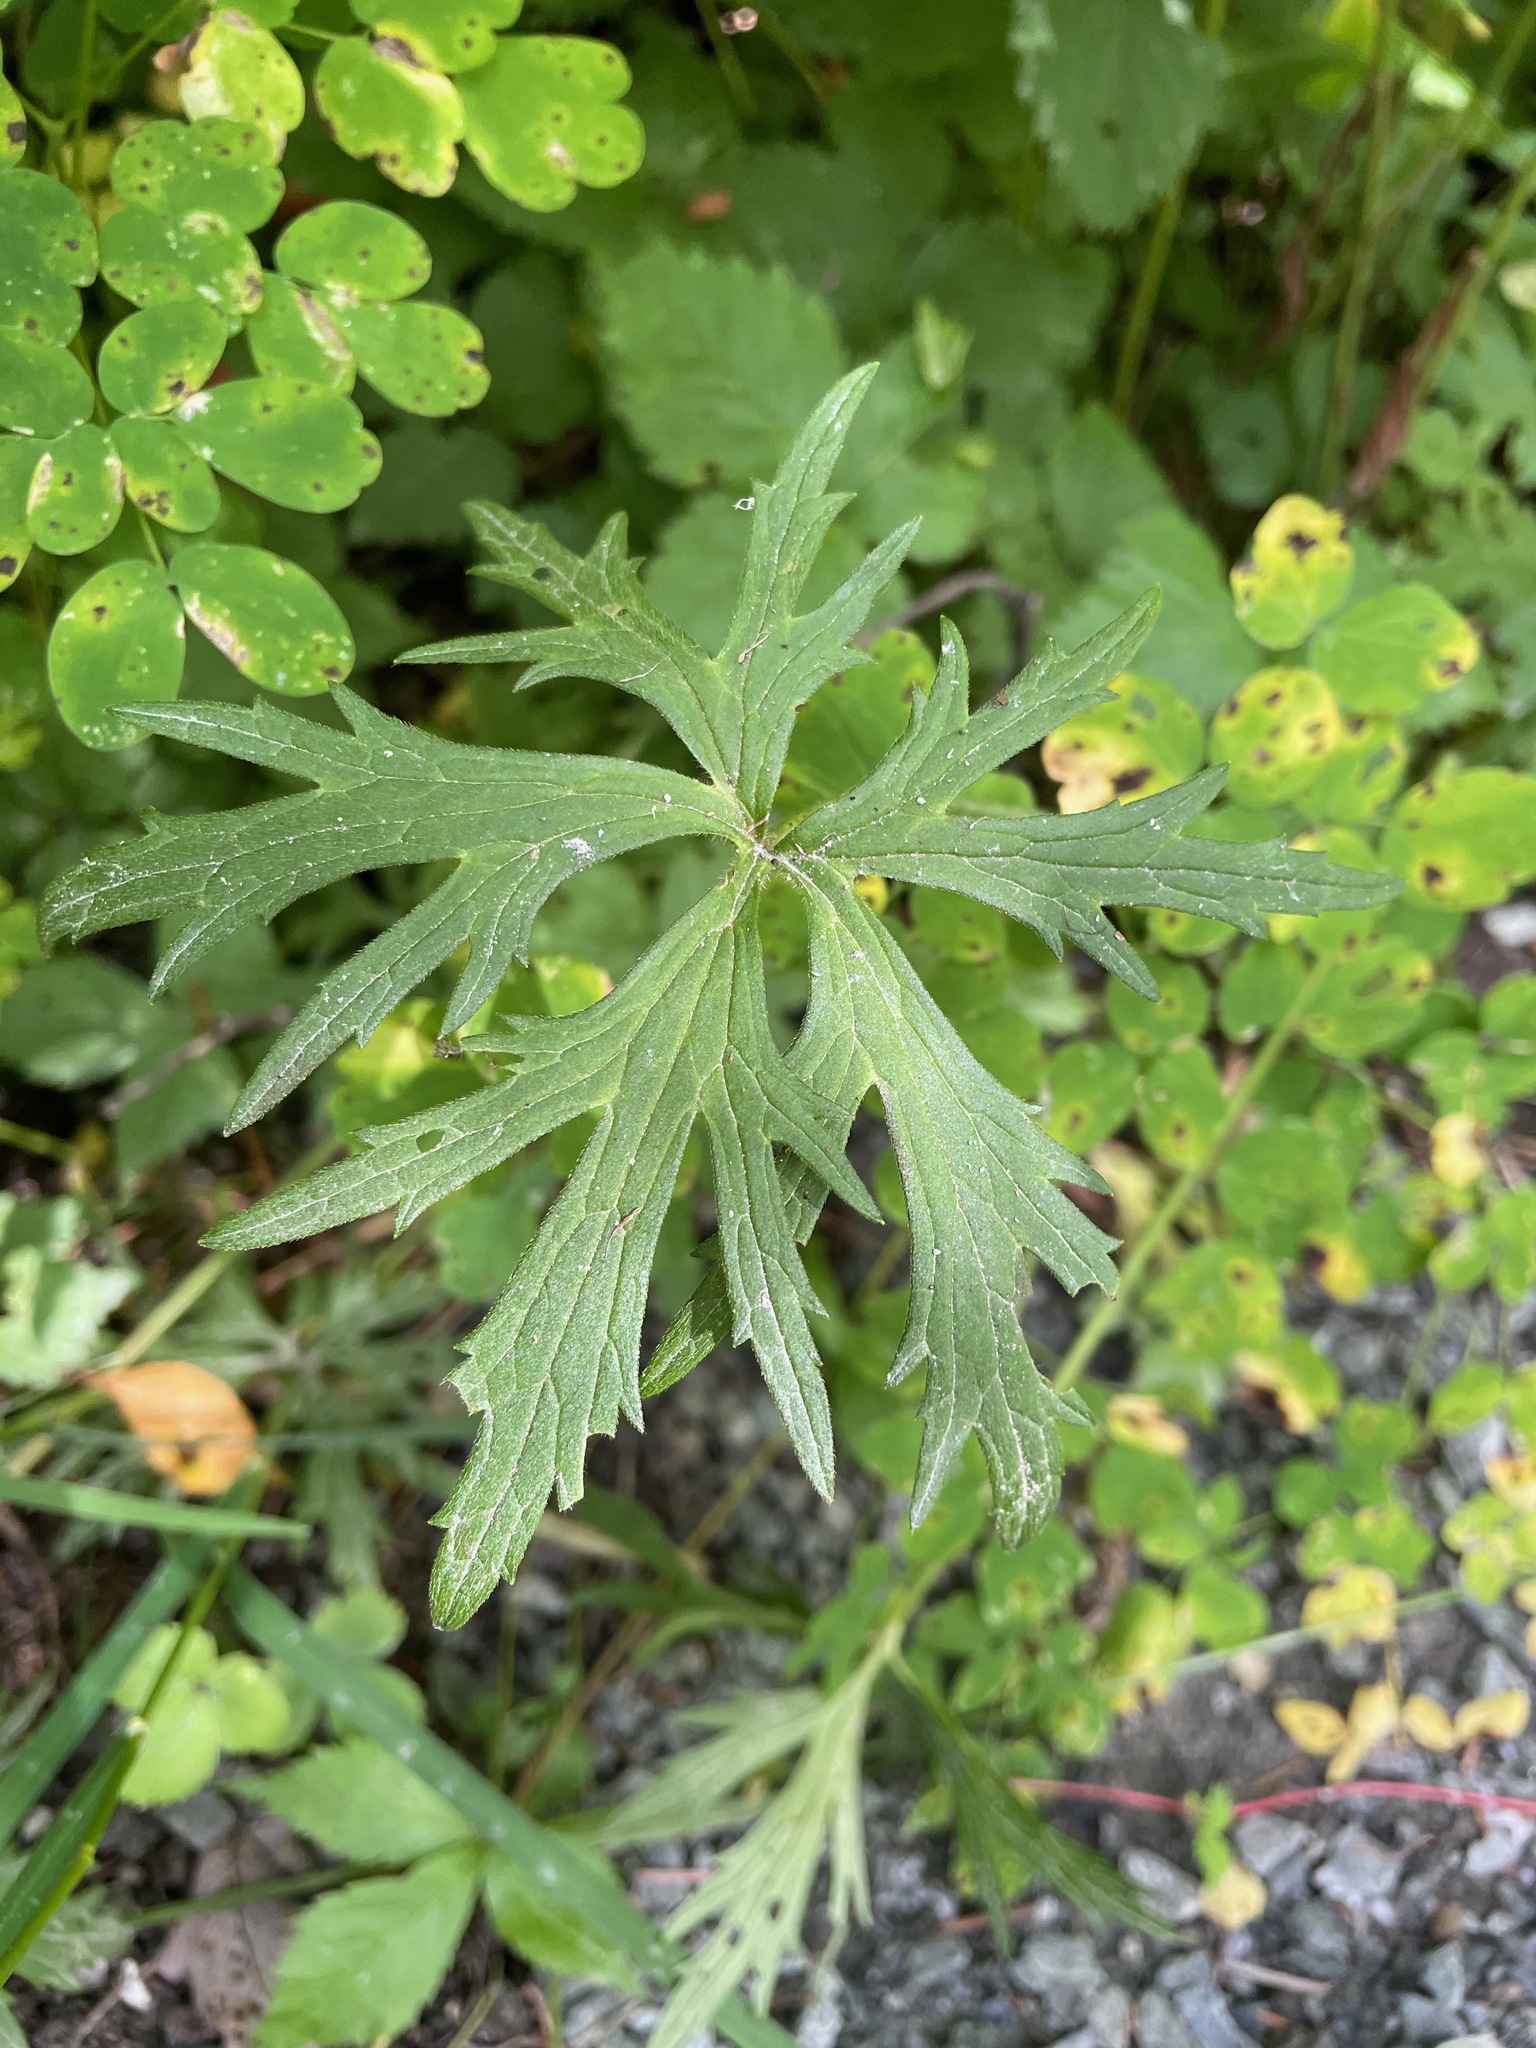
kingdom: Plantae
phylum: Tracheophyta
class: Magnoliopsida
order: Ranunculales
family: Ranunculaceae
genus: Ranunculus
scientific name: Ranunculus acris
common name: Meadow buttercup
